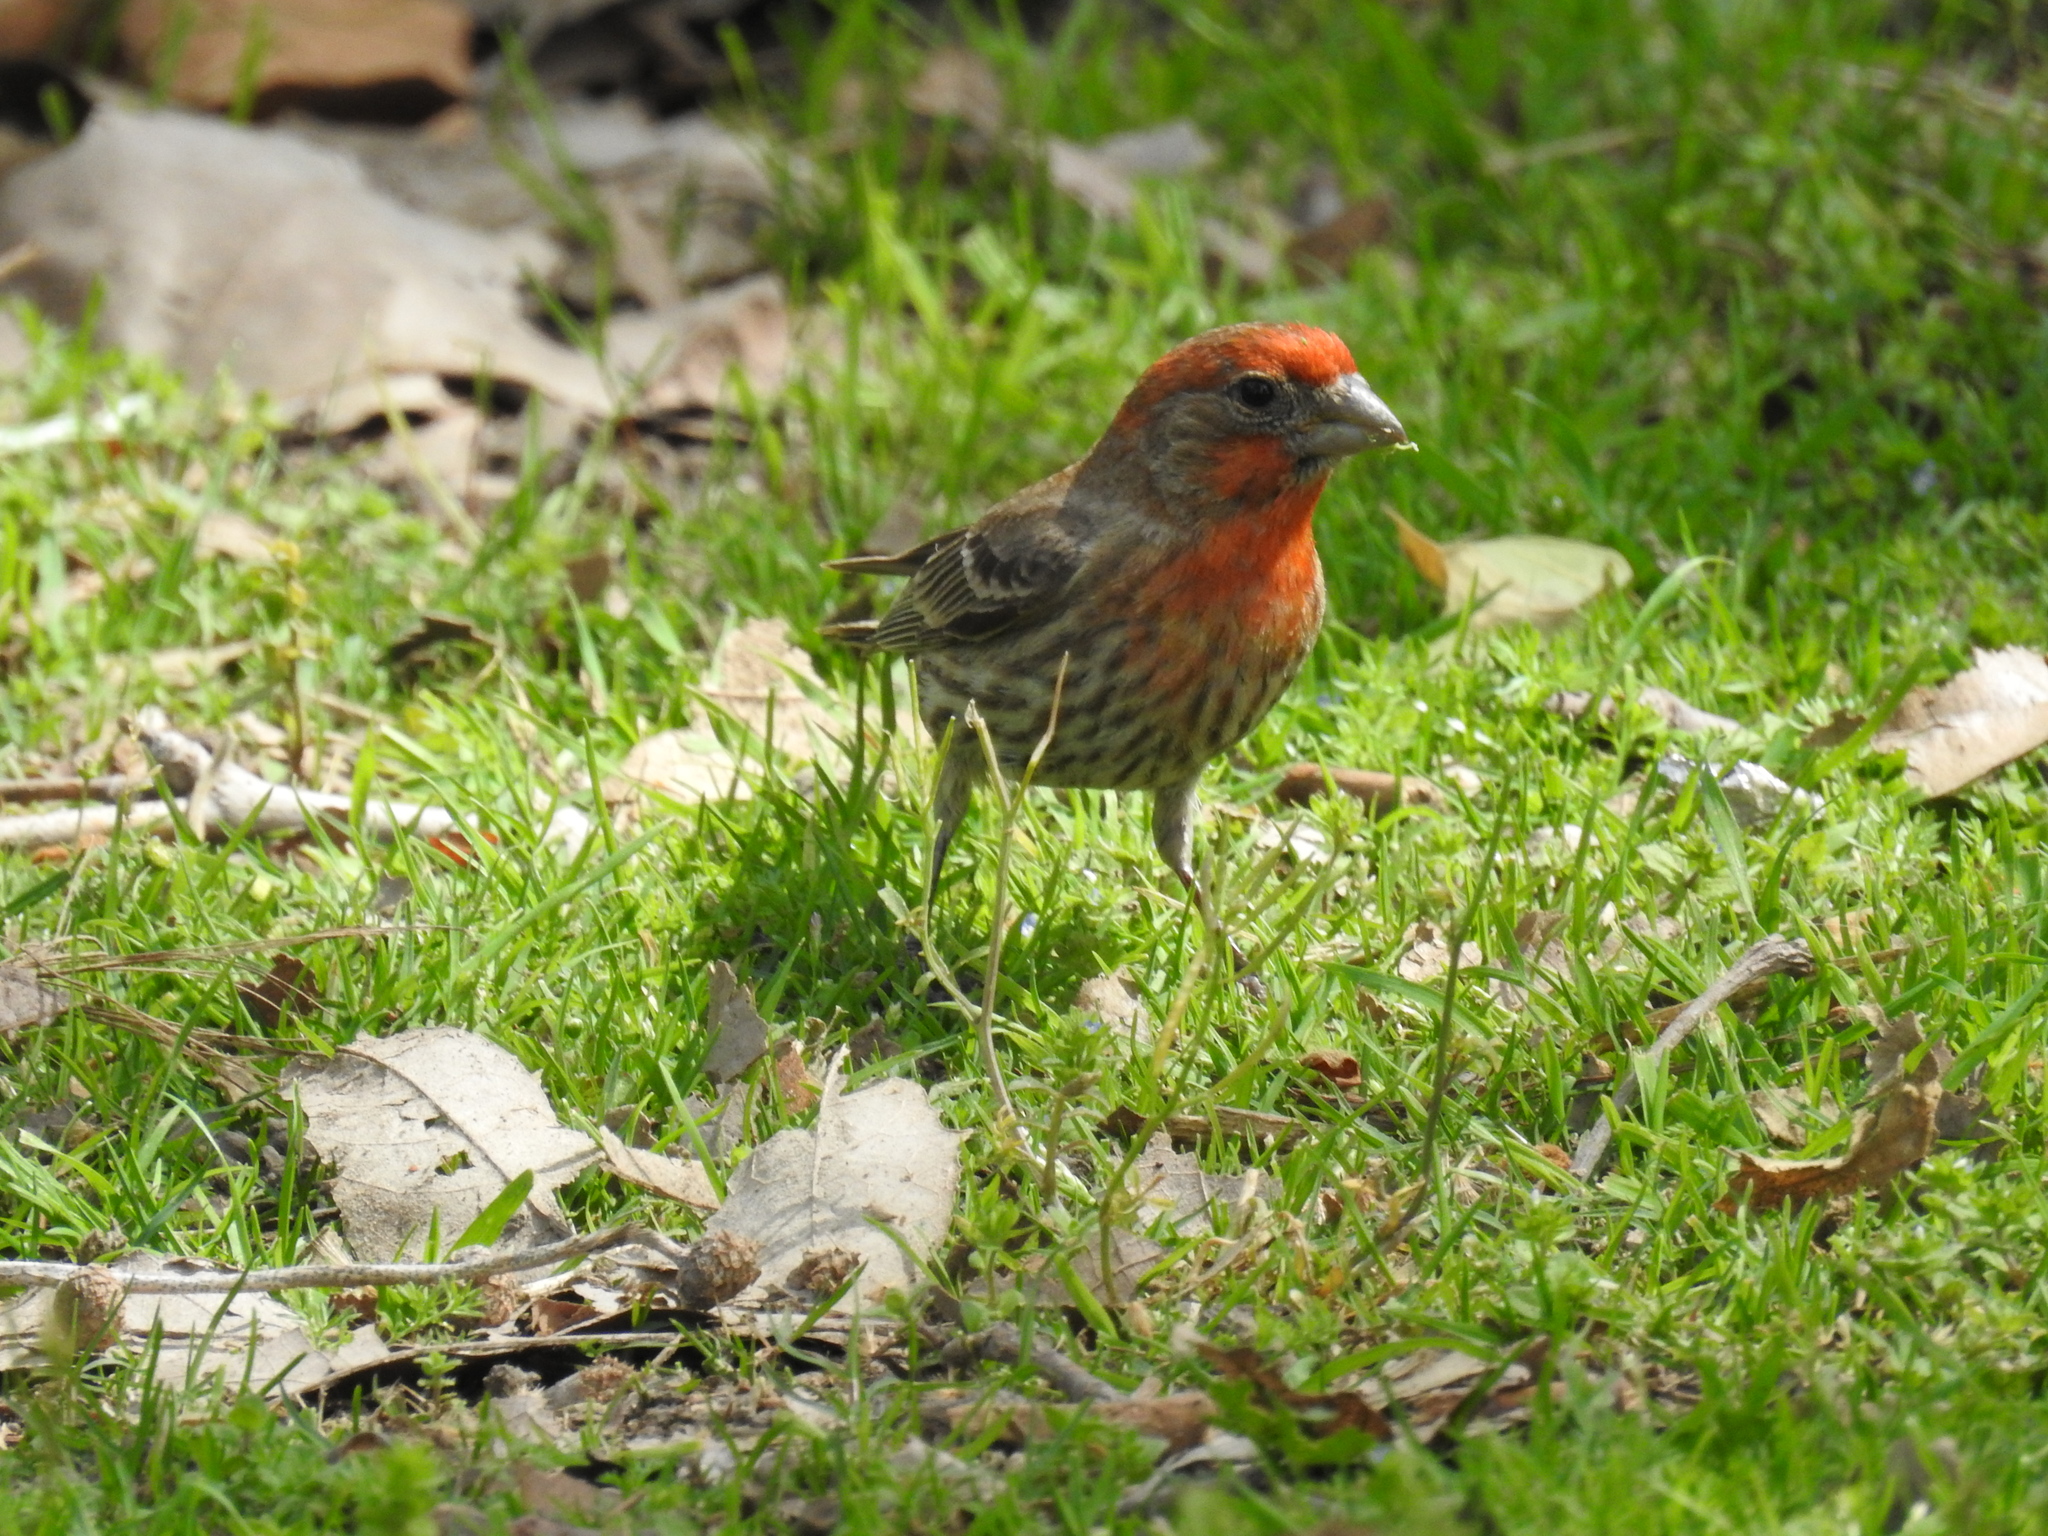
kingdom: Animalia
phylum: Chordata
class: Aves
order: Passeriformes
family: Fringillidae
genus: Haemorhous
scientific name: Haemorhous mexicanus
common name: House finch
